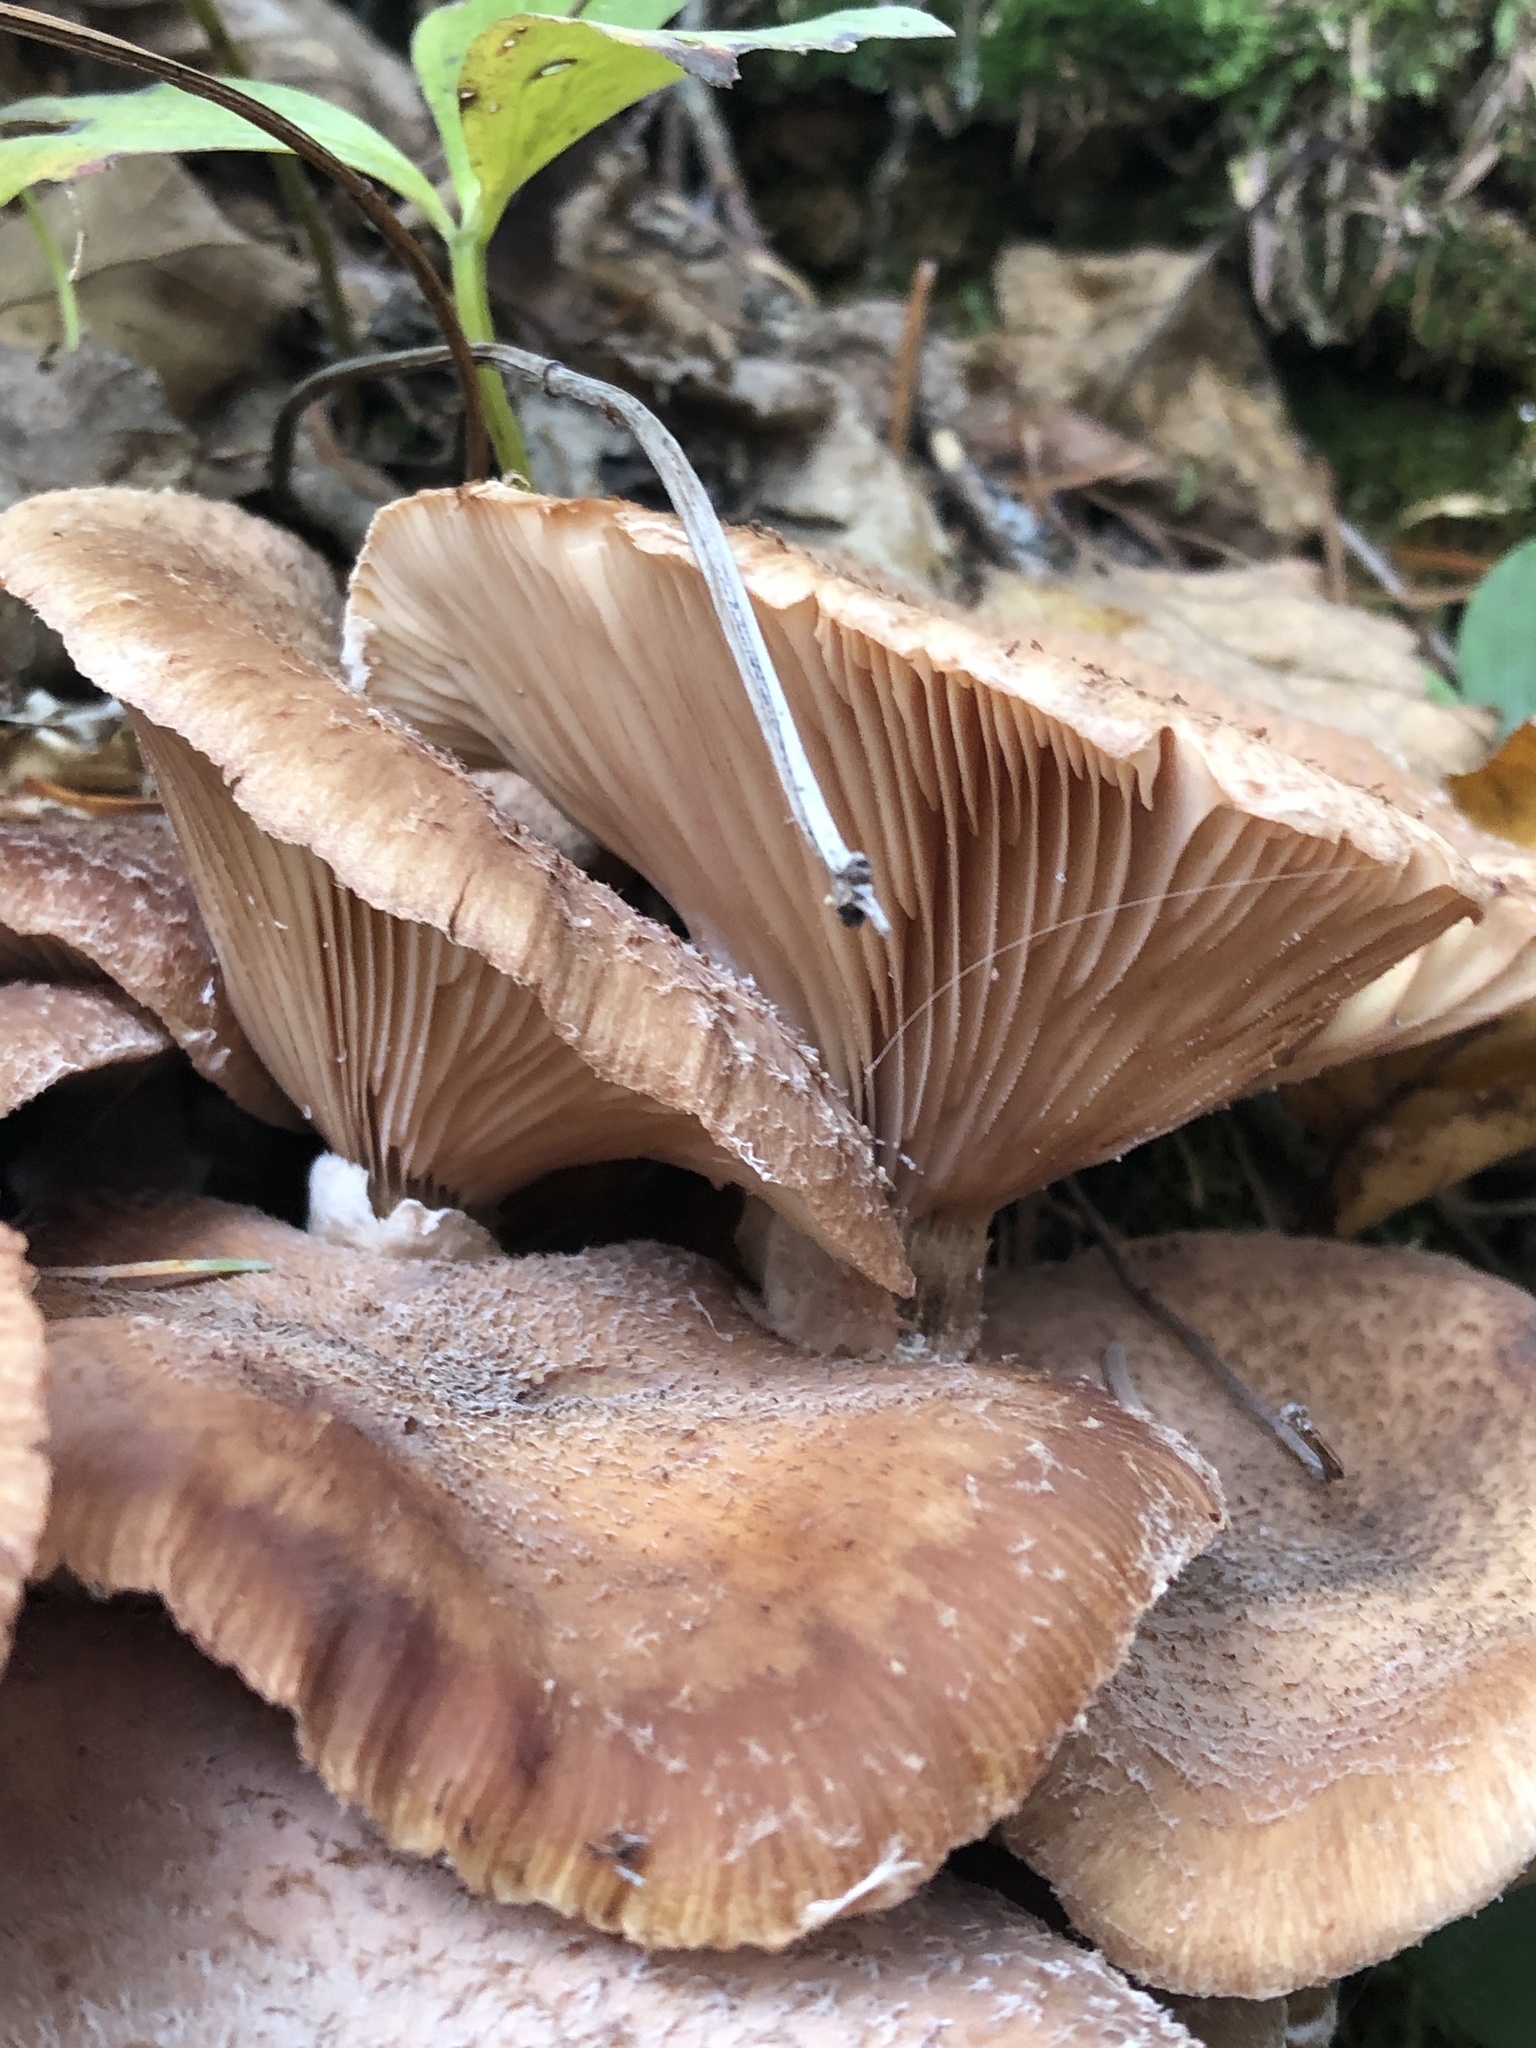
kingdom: Fungi
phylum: Basidiomycota
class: Agaricomycetes
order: Agaricales
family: Physalacriaceae
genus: Armillaria
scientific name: Armillaria ostoyae
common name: Dark honey fungus
